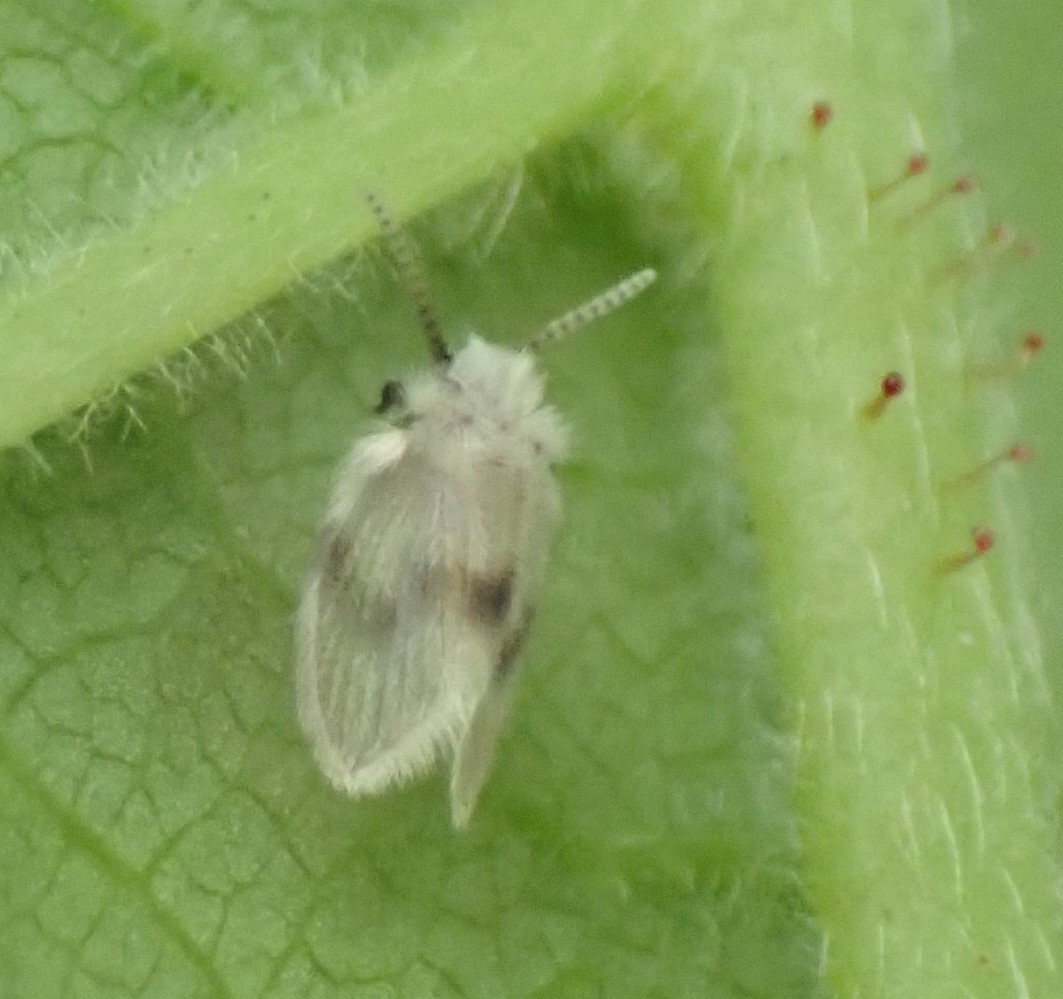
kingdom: Animalia
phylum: Arthropoda
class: Insecta
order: Diptera
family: Psychodidae
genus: Psychoda
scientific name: Psychoda sigma
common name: Moth fly
